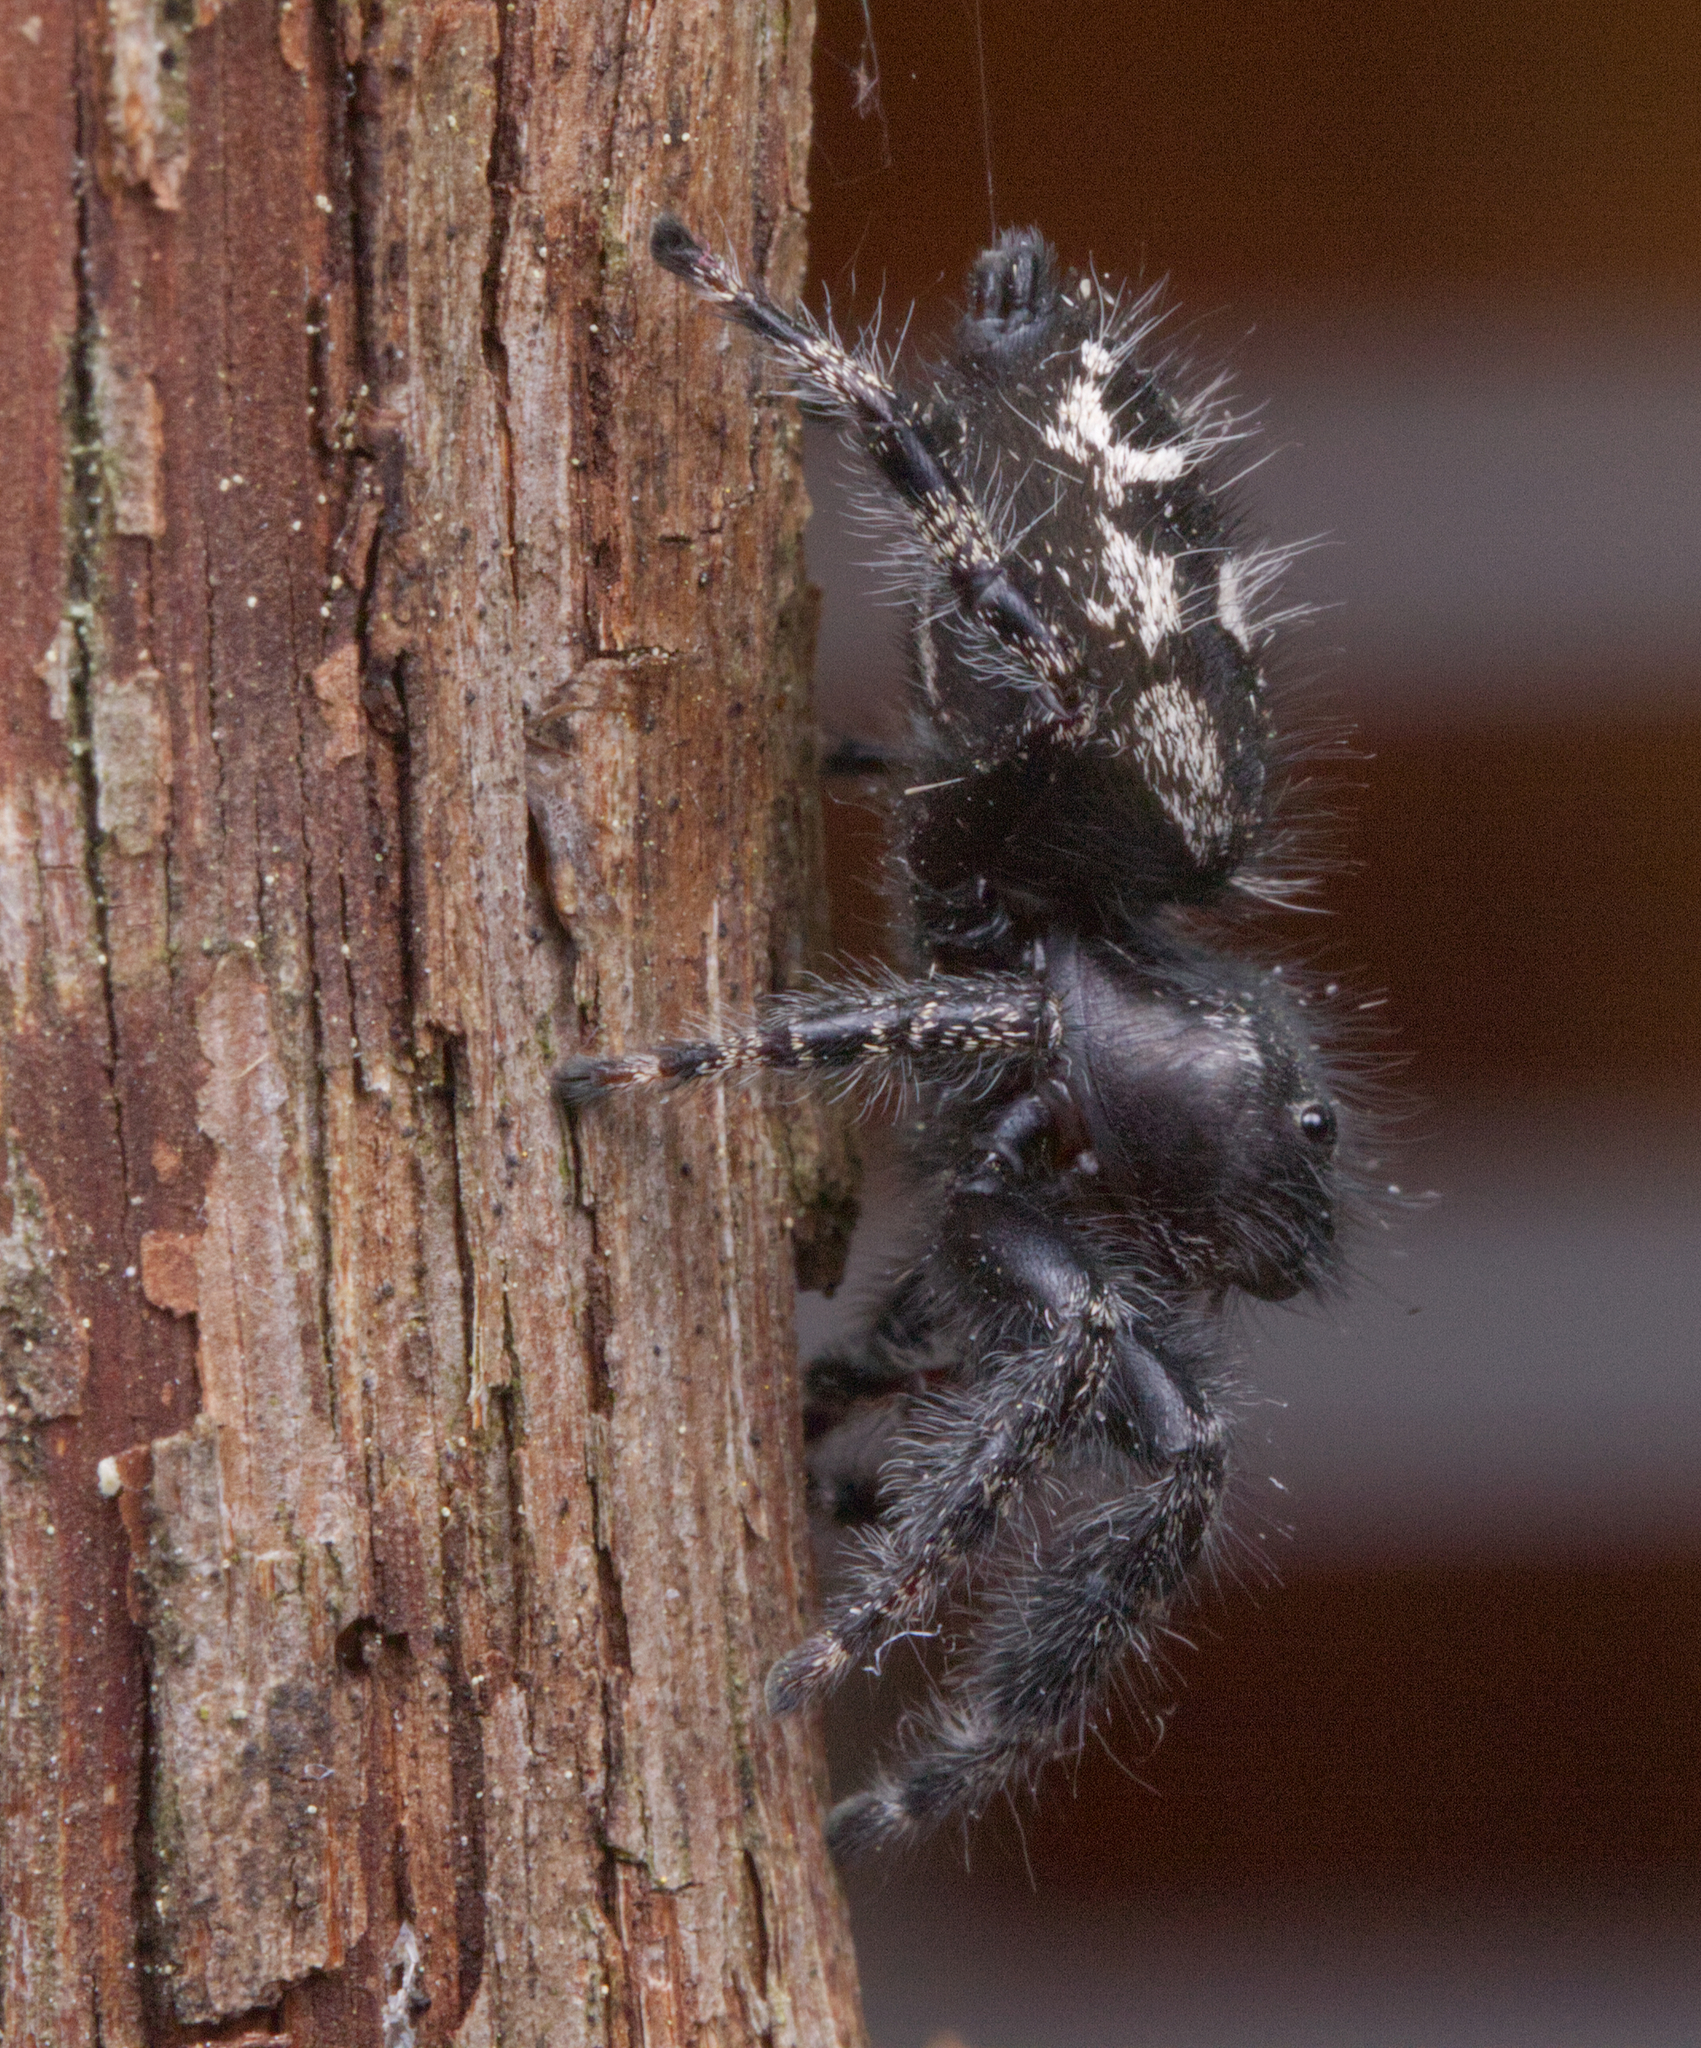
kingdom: Animalia
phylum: Arthropoda
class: Arachnida
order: Araneae
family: Salticidae
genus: Phidippus
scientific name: Phidippus audax
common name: Bold jumper
